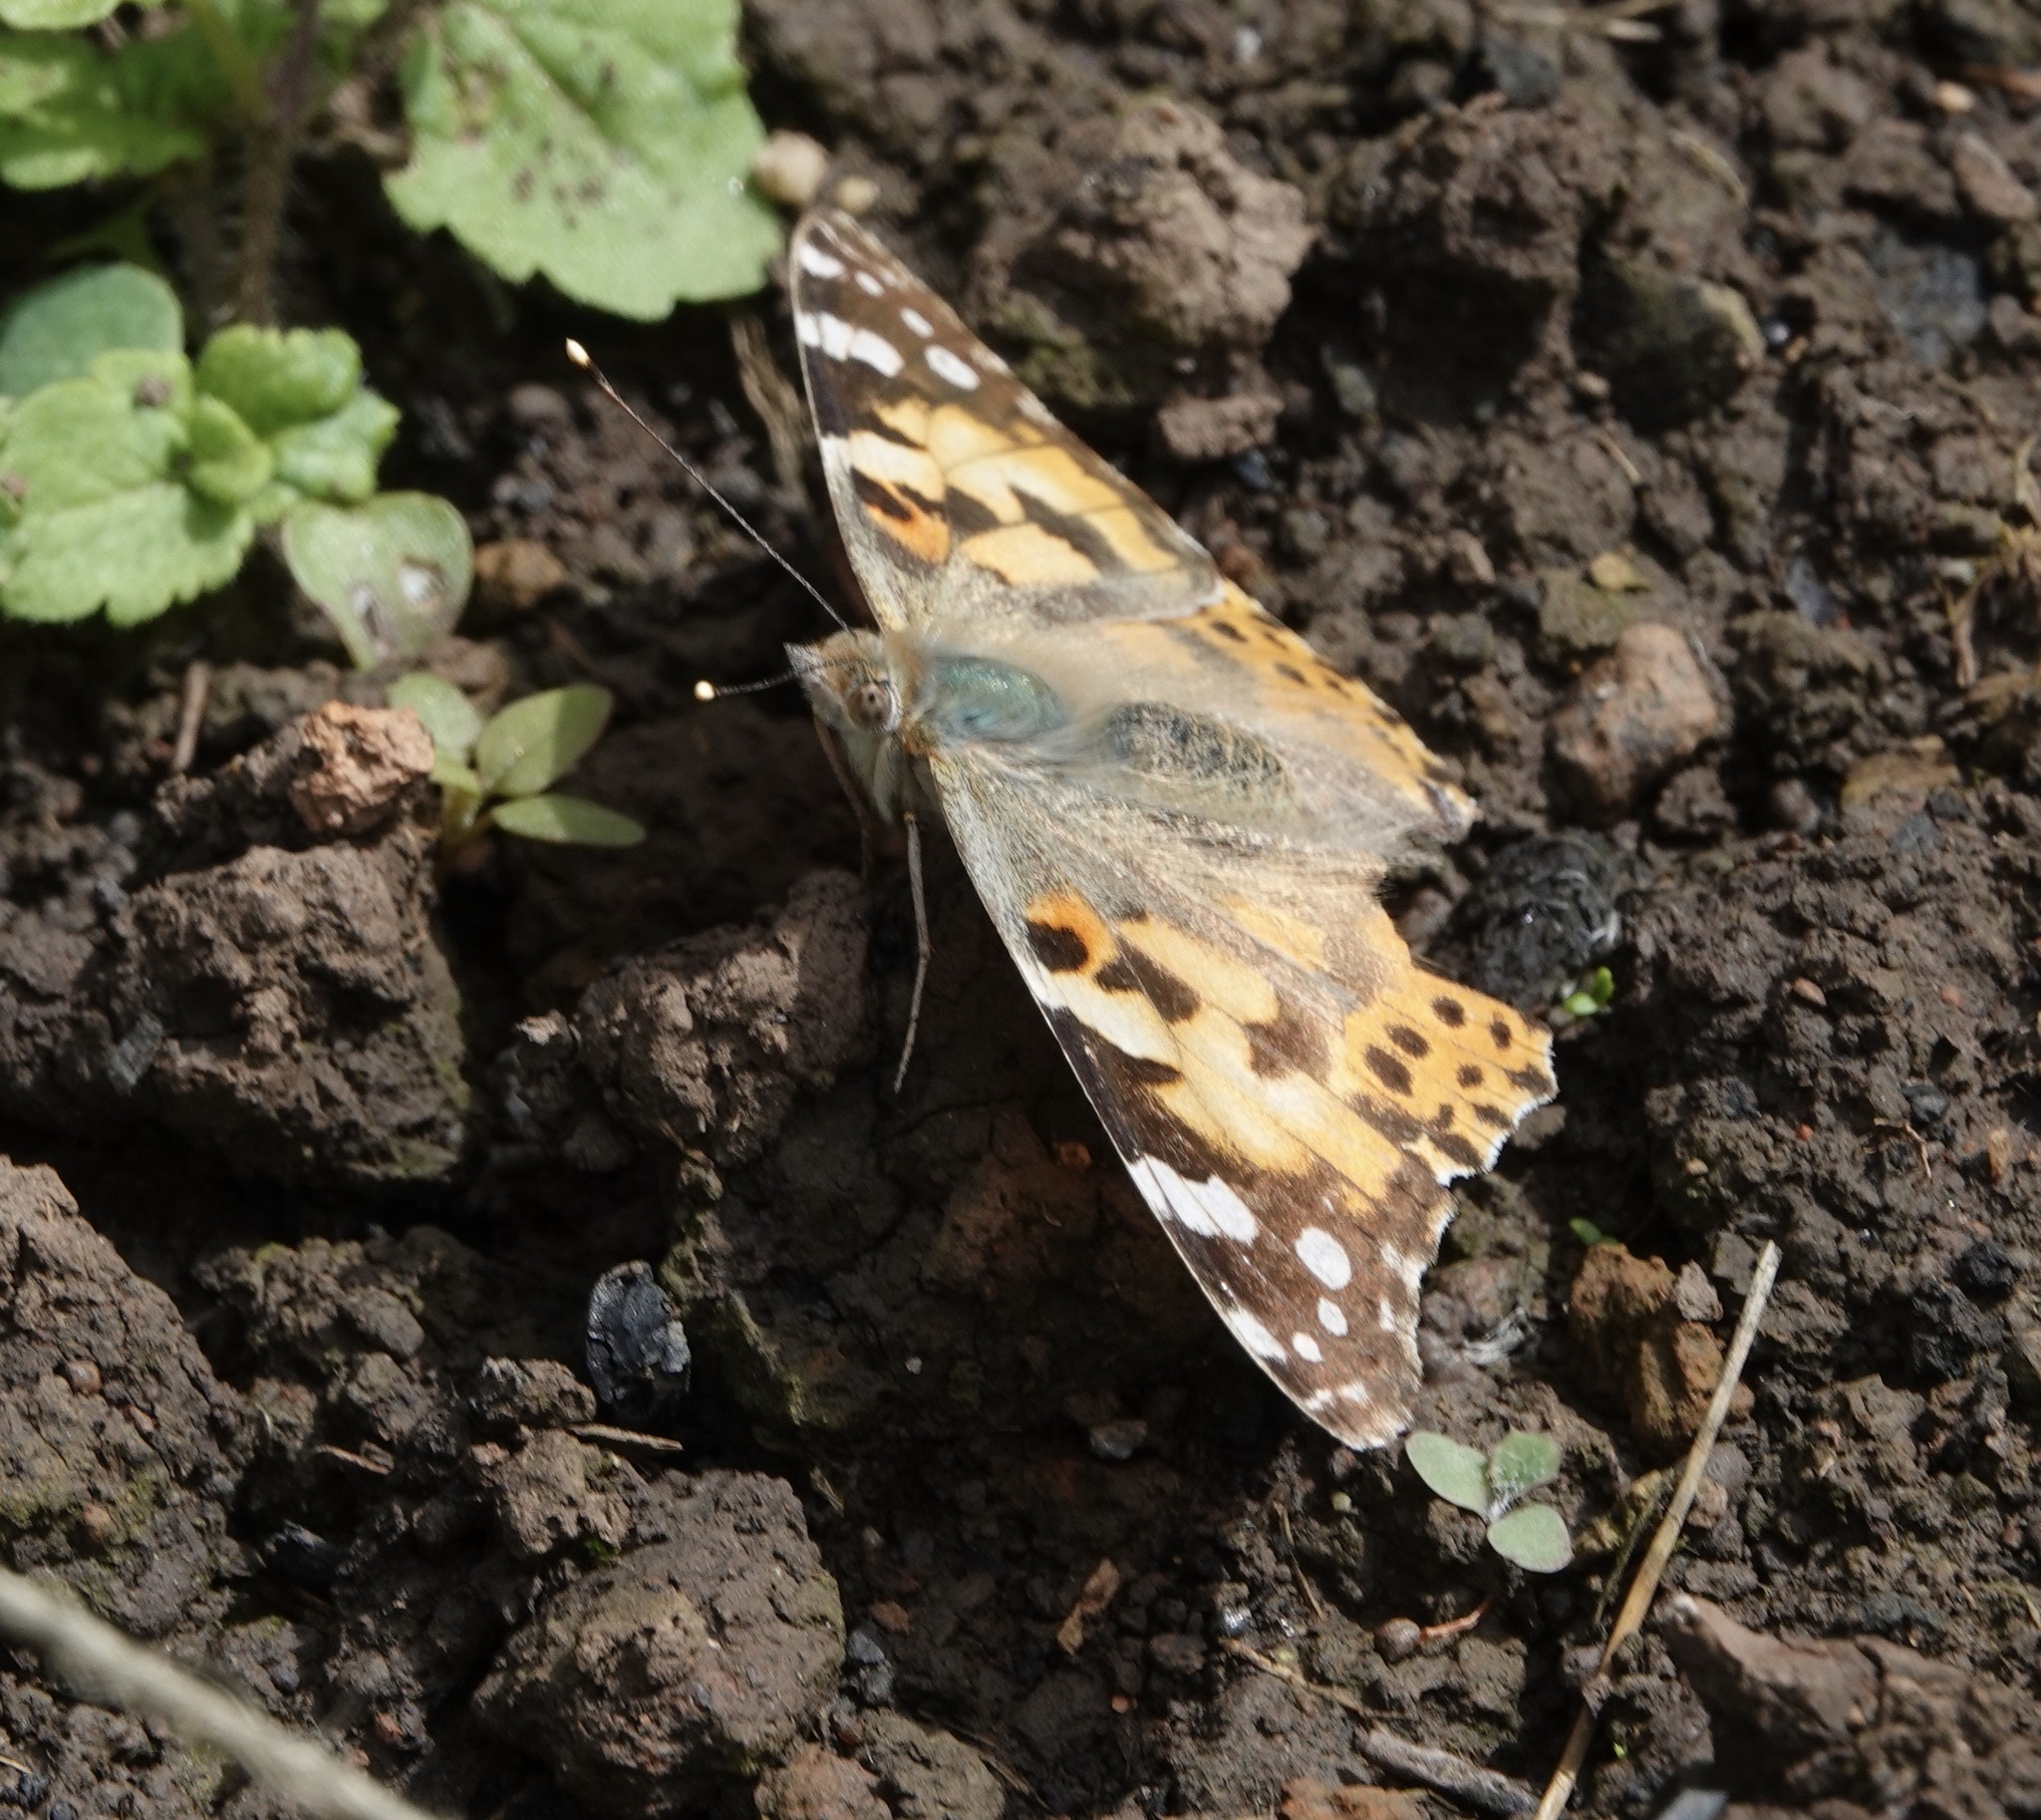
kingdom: Animalia
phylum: Arthropoda
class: Insecta
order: Lepidoptera
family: Nymphalidae
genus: Vanessa
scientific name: Vanessa cardui
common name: Painted lady
